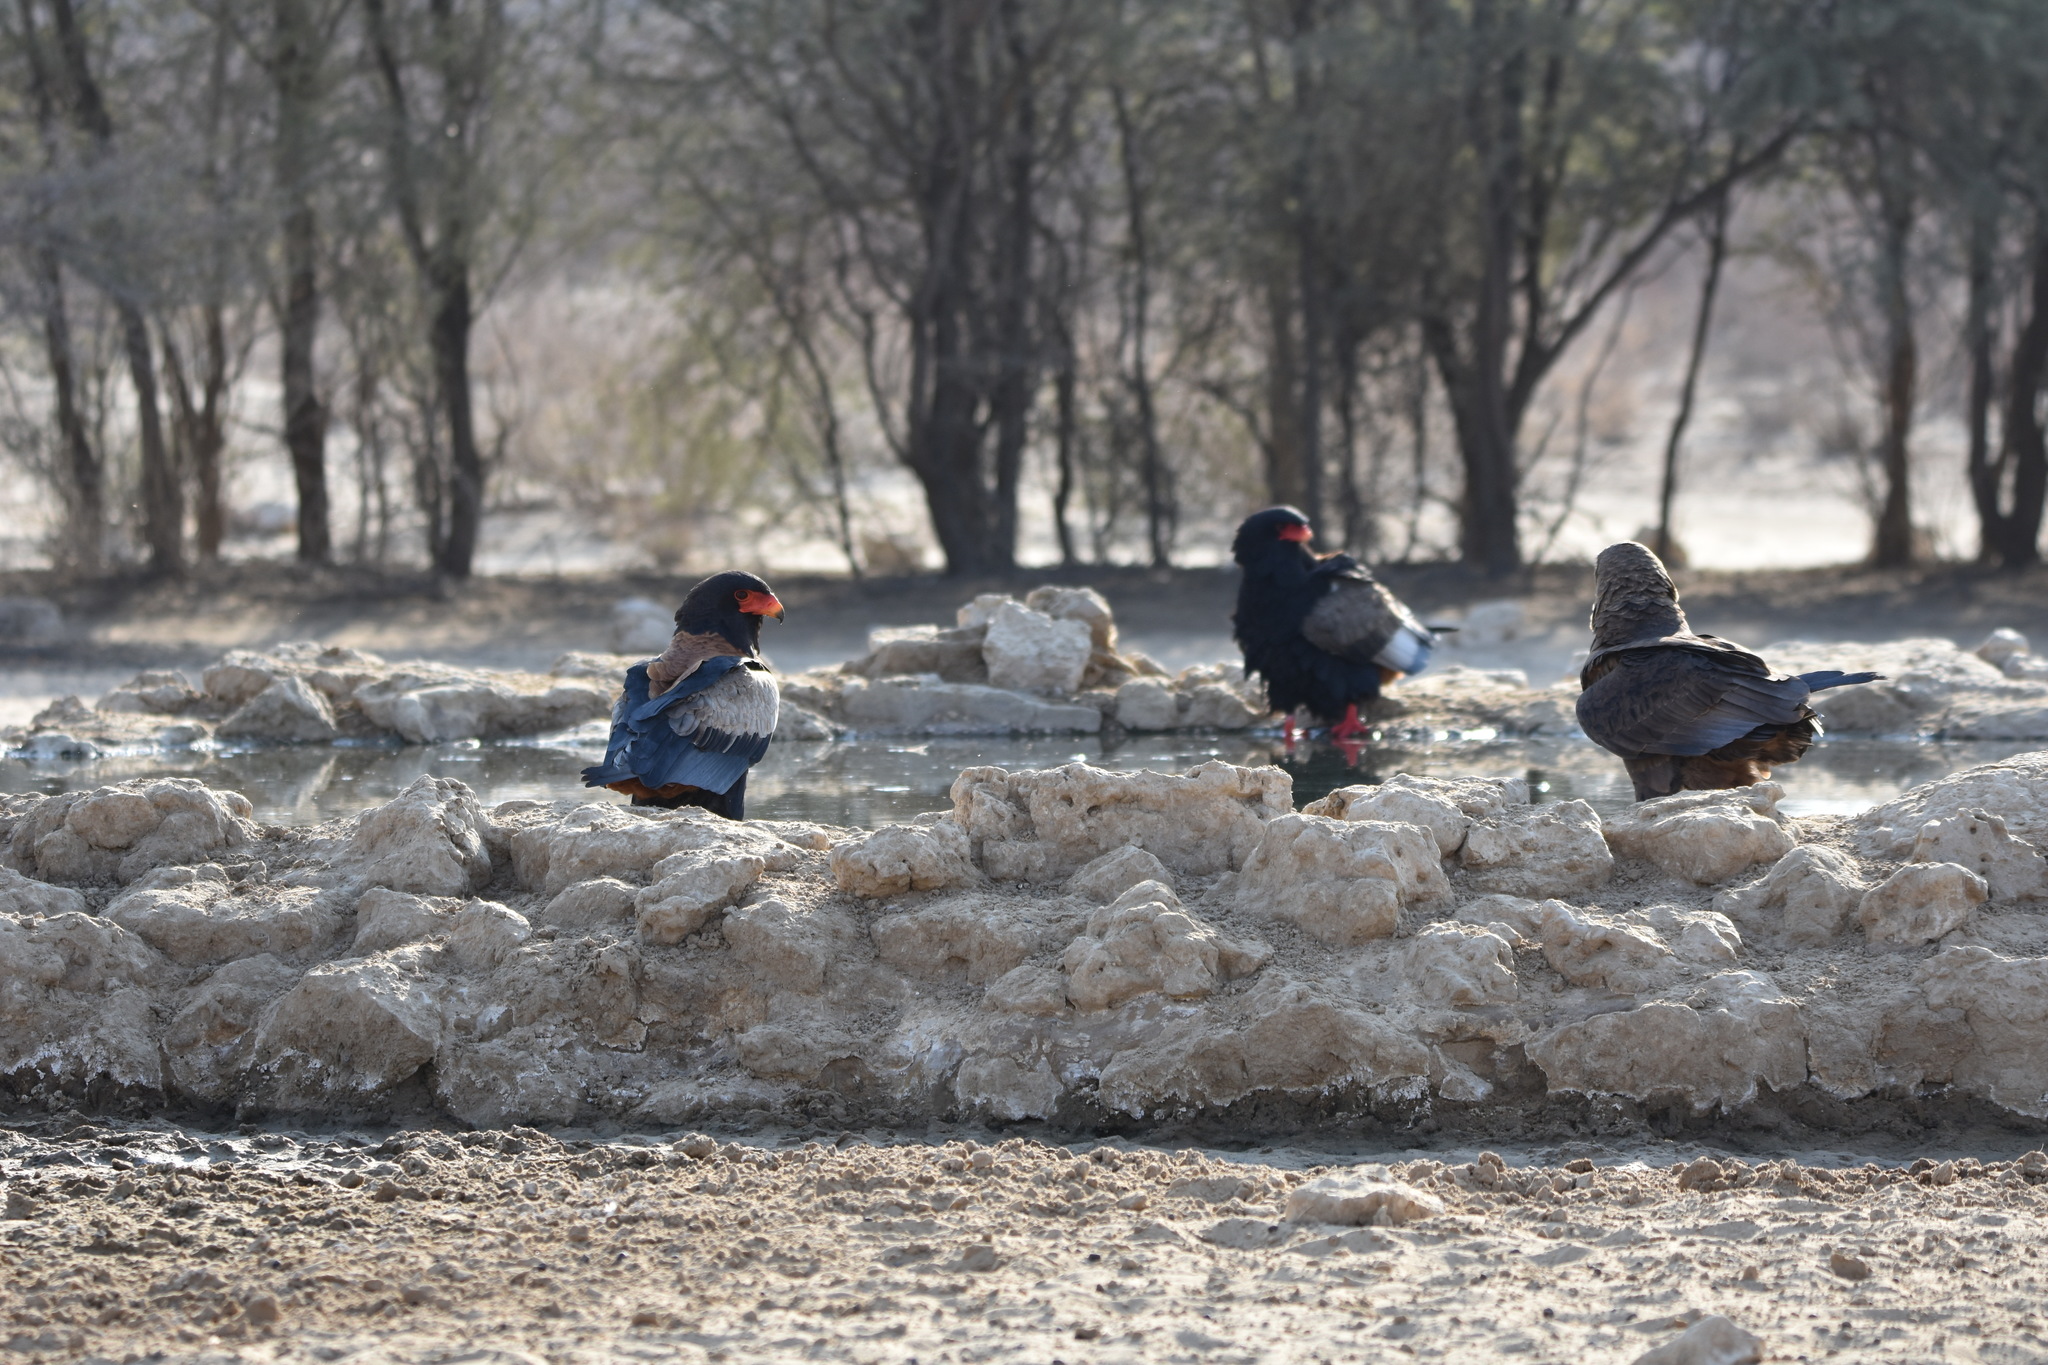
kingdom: Animalia
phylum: Chordata
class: Aves
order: Accipitriformes
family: Accipitridae
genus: Terathopius
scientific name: Terathopius ecaudatus
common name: Bateleur
